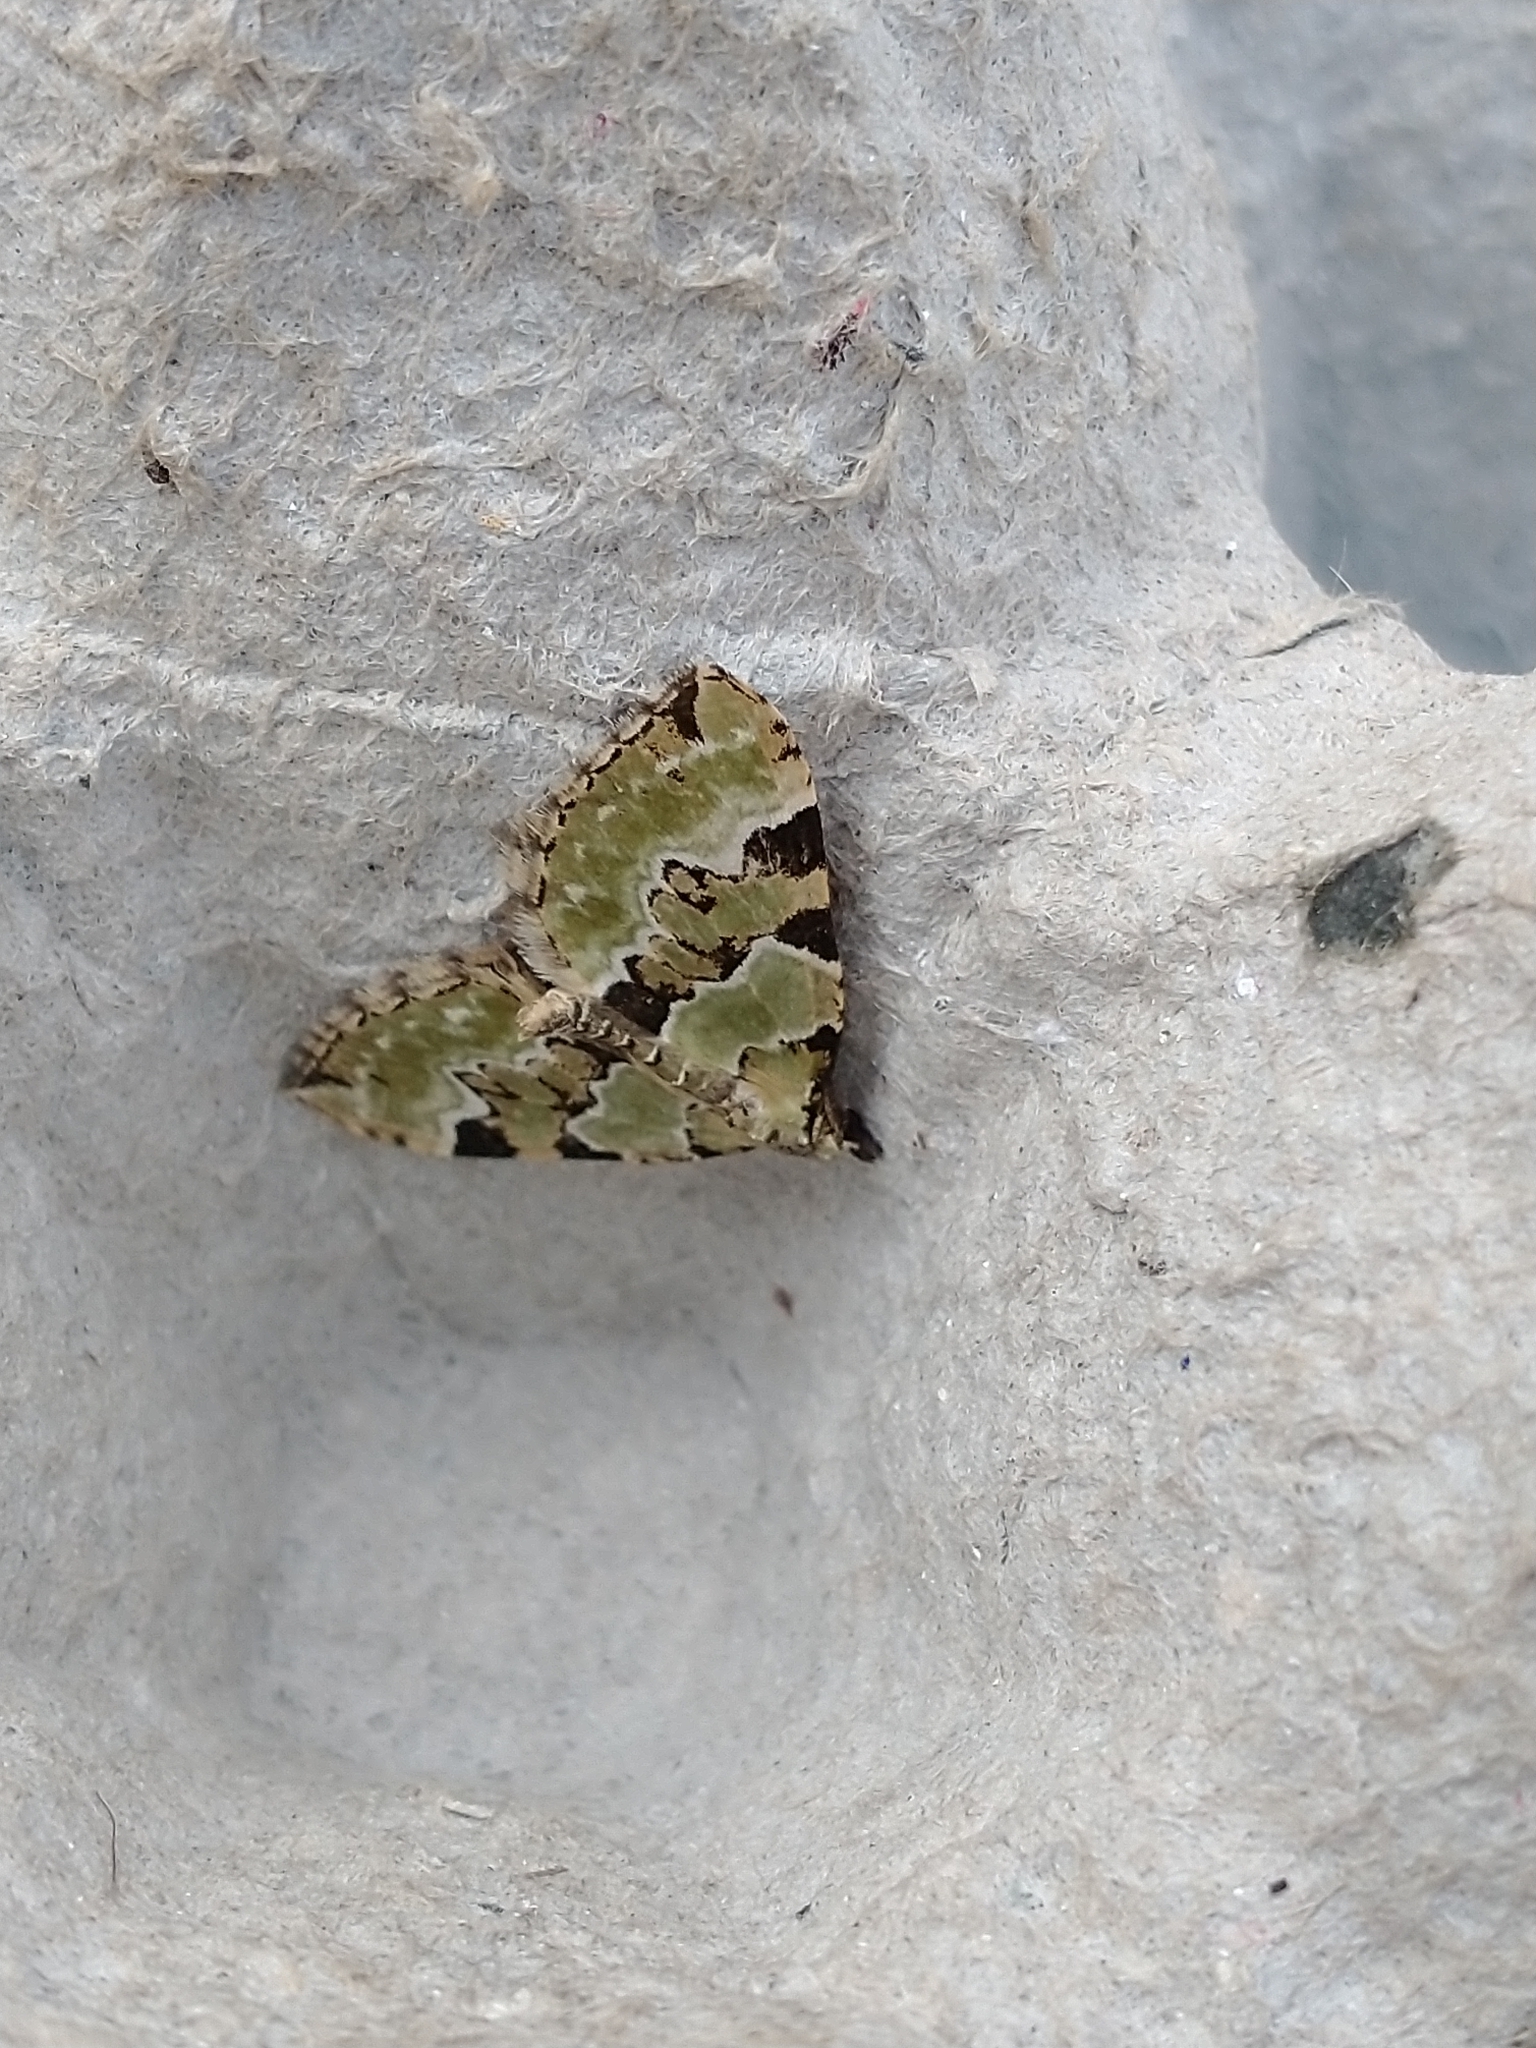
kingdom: Animalia
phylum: Arthropoda
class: Insecta
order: Lepidoptera
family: Geometridae
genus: Colostygia
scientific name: Colostygia pectinataria
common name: Green carpet
